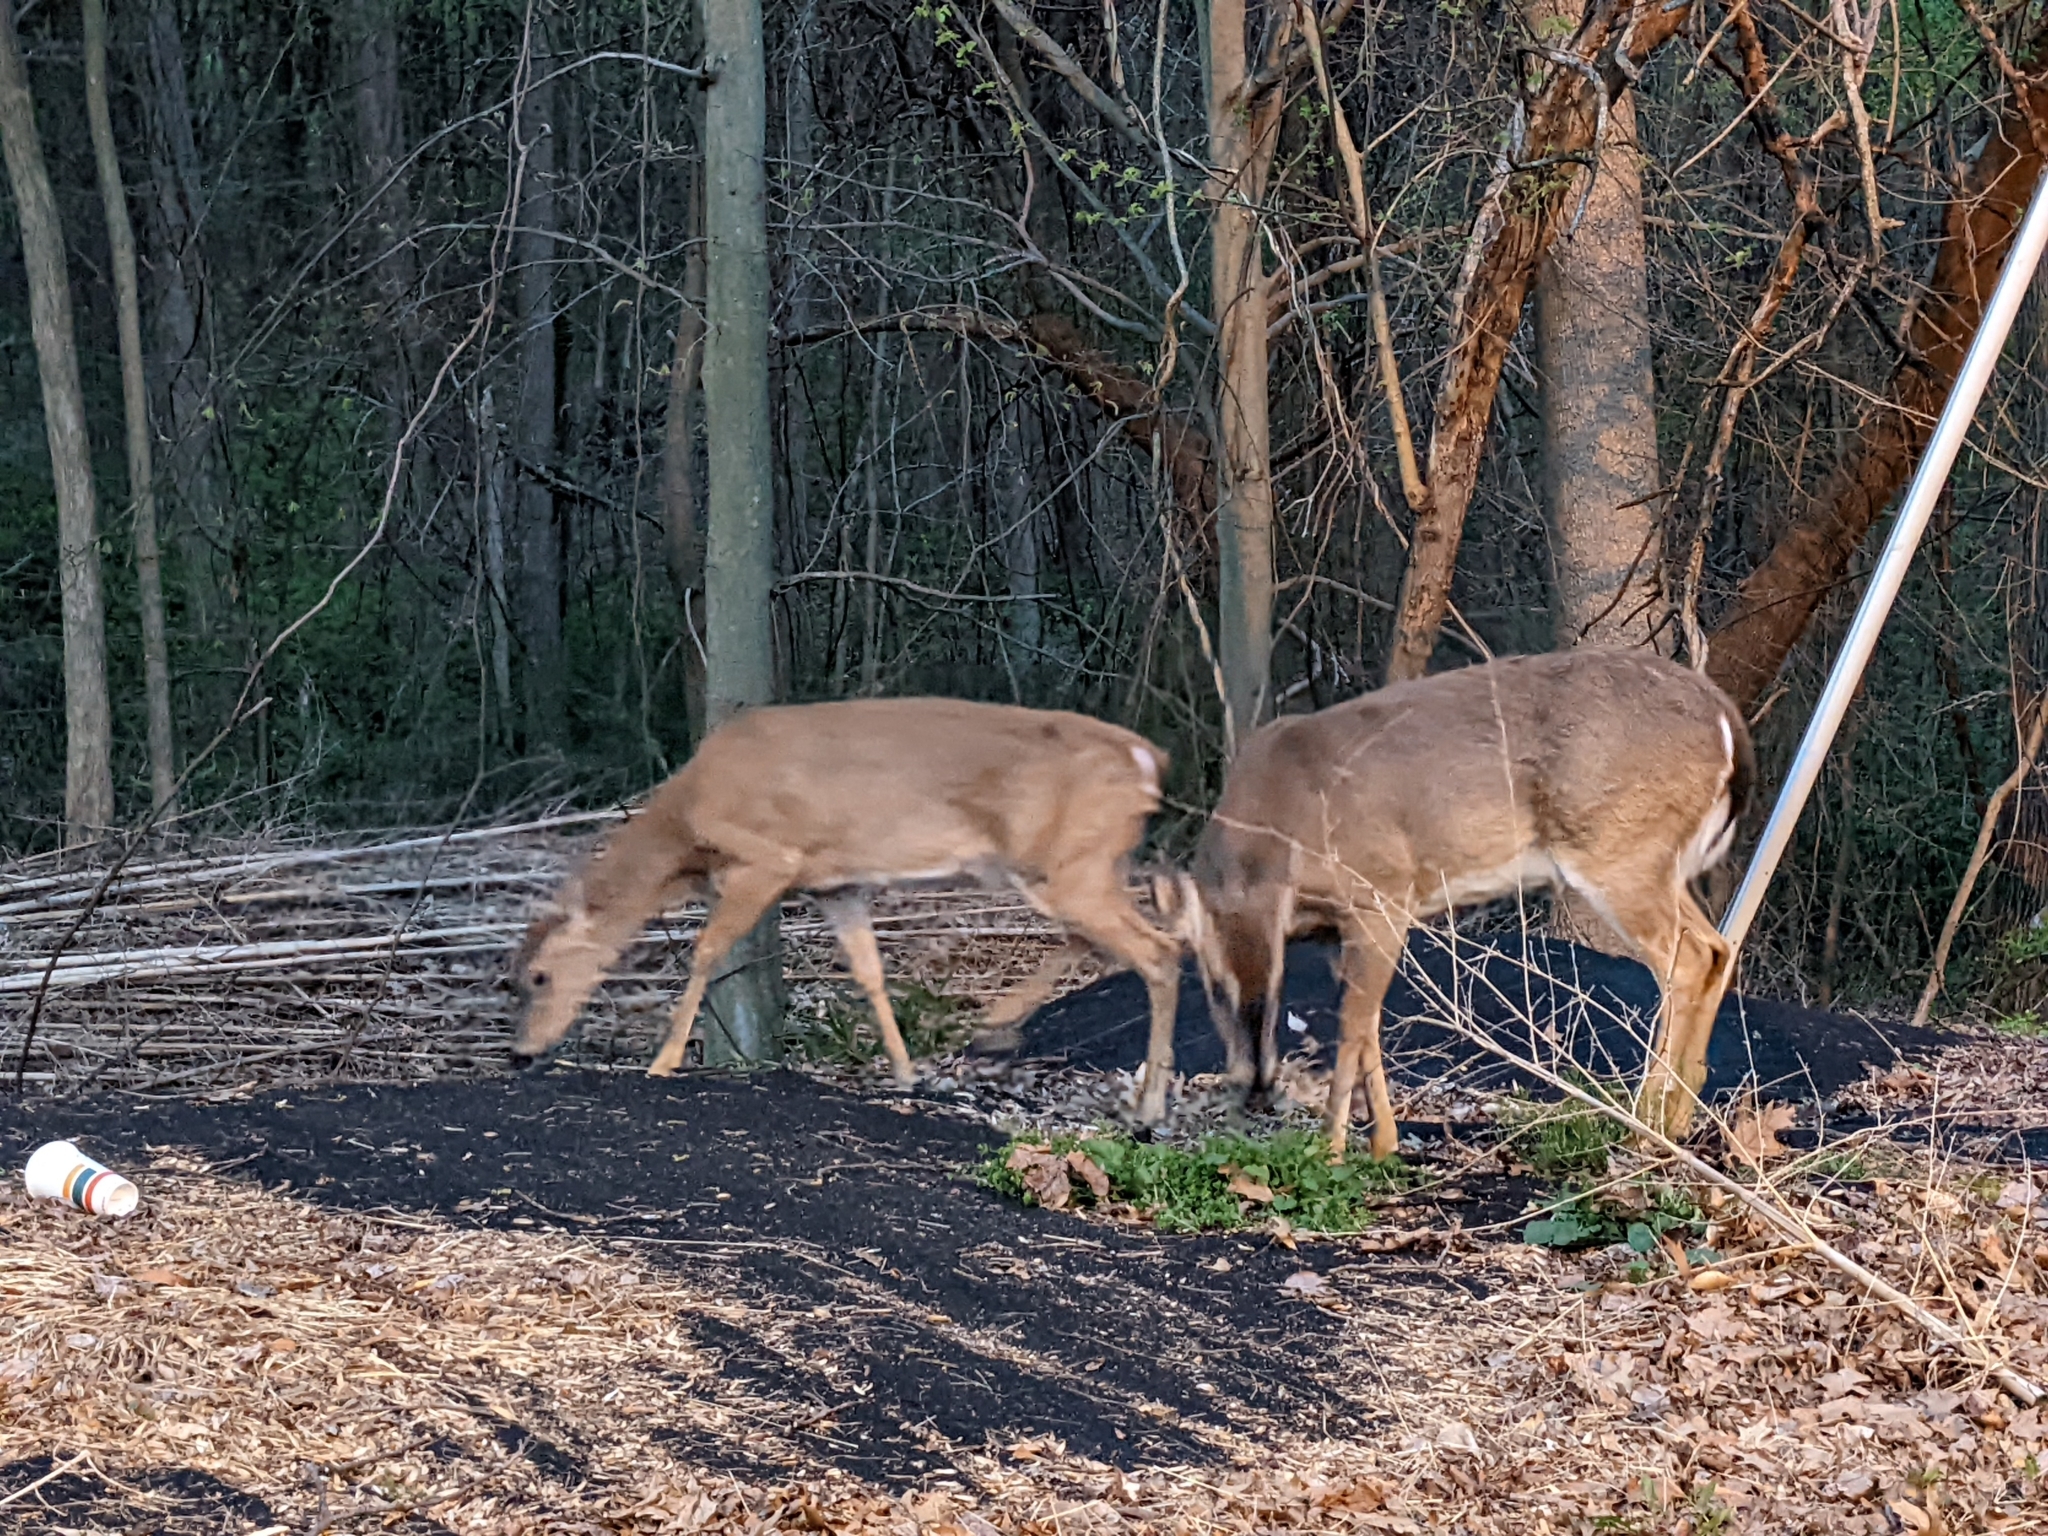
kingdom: Animalia
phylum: Chordata
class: Mammalia
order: Artiodactyla
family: Cervidae
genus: Odocoileus
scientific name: Odocoileus virginianus
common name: White-tailed deer
